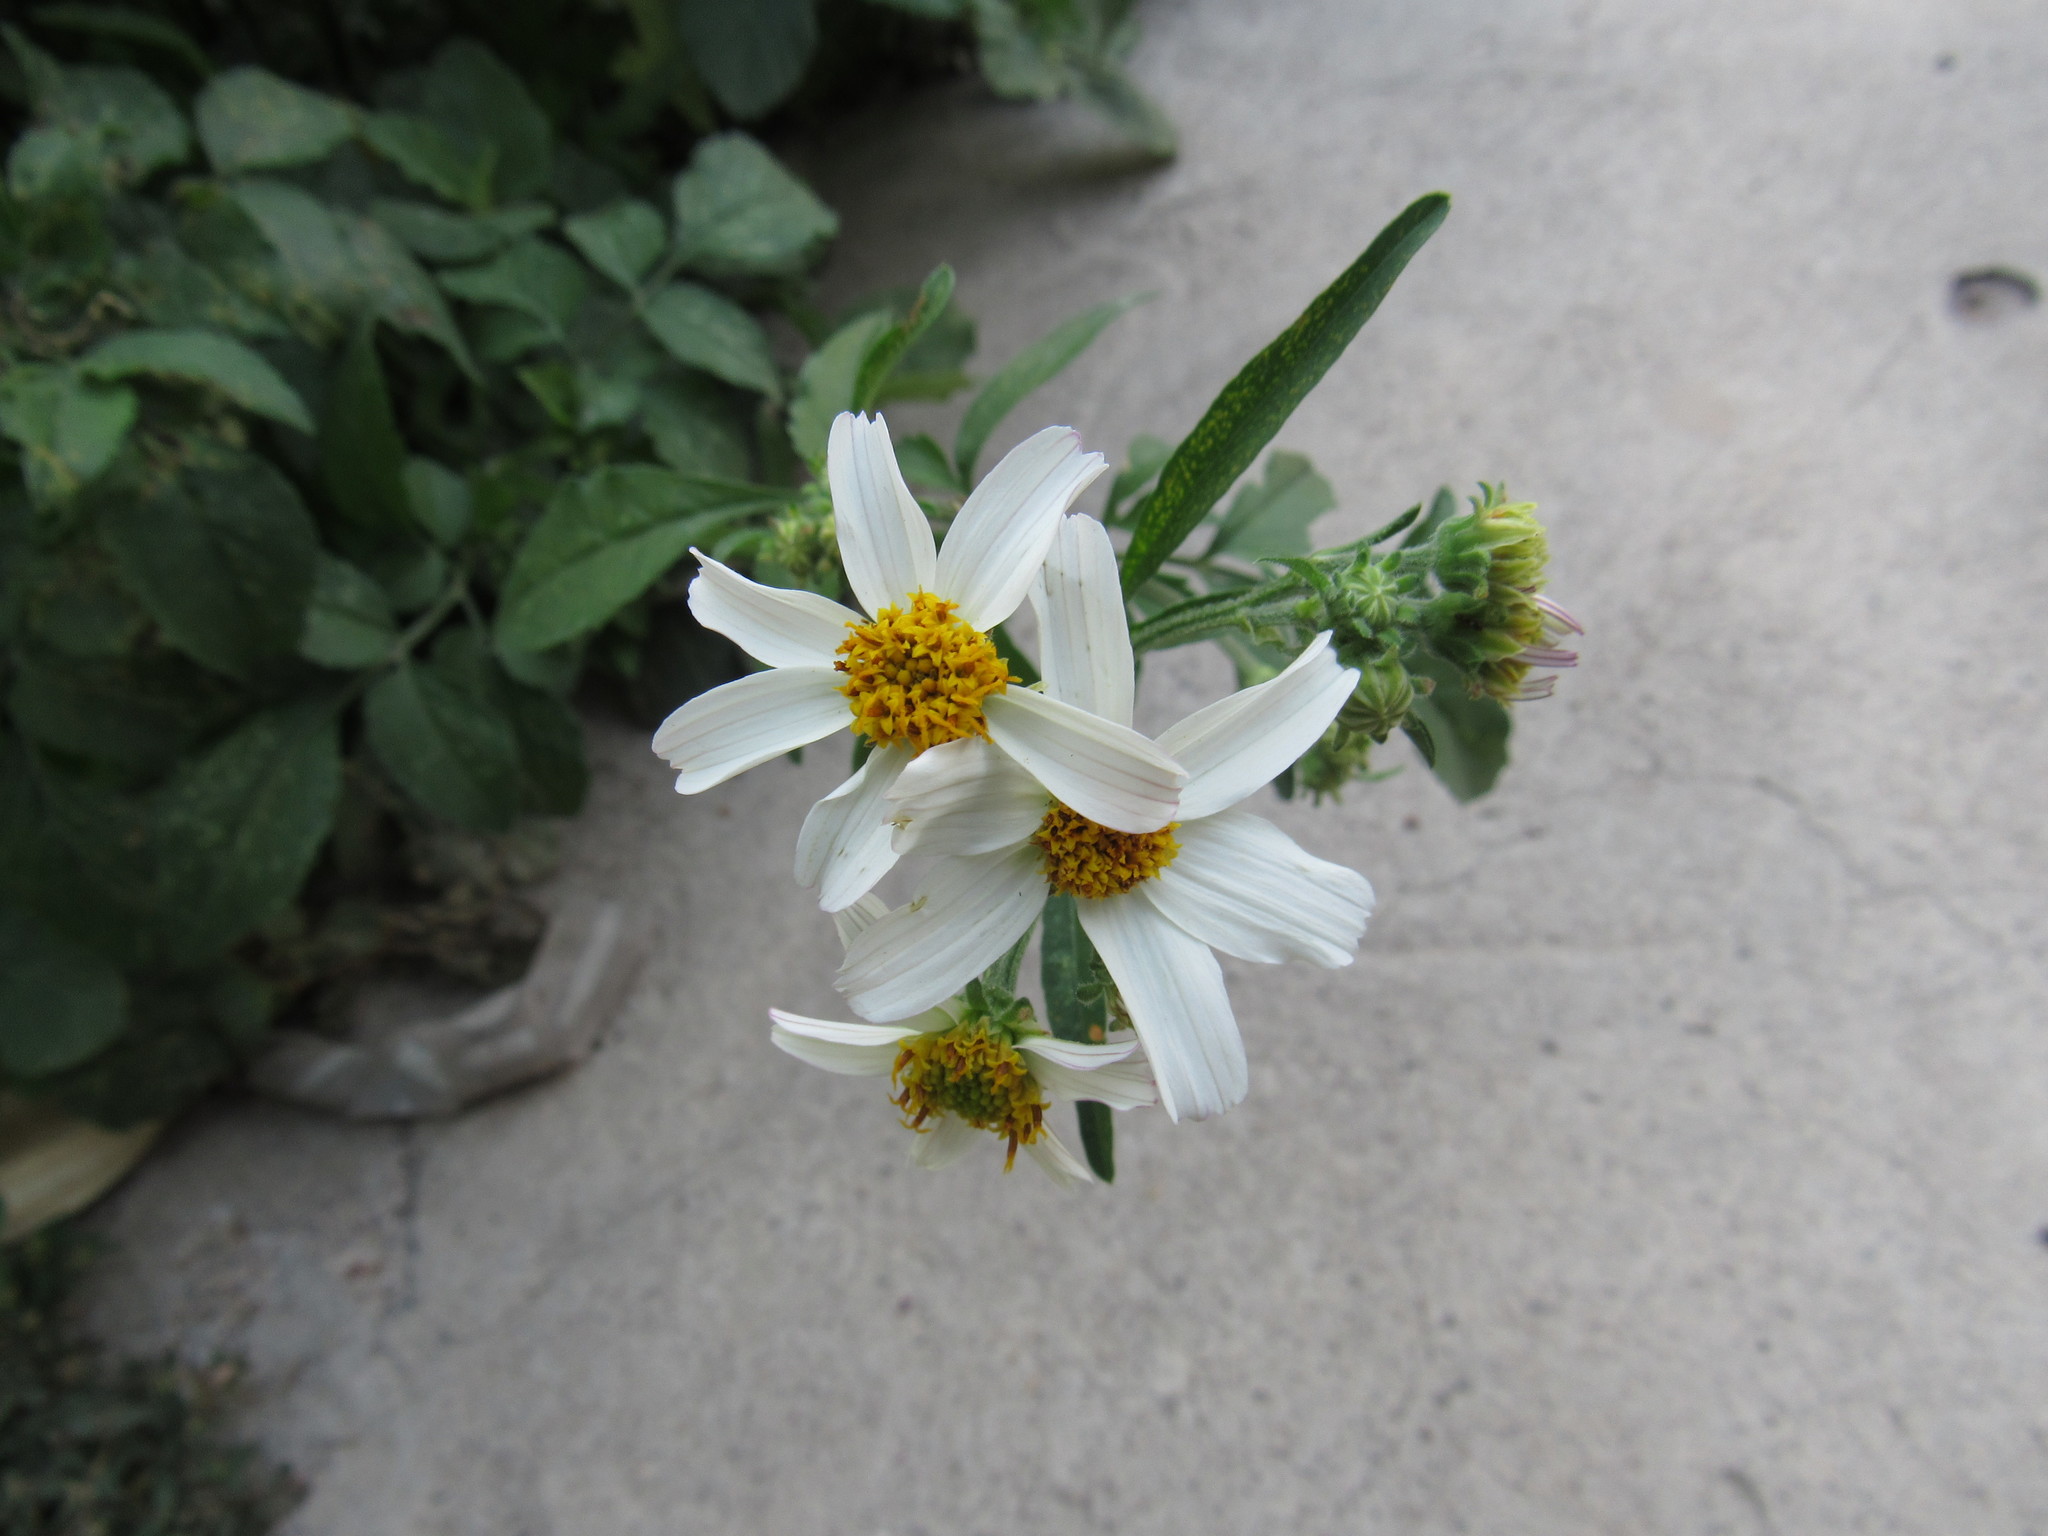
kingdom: Plantae
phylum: Tracheophyta
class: Magnoliopsida
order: Asterales
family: Asteraceae
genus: Bidens
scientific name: Bidens odorata
